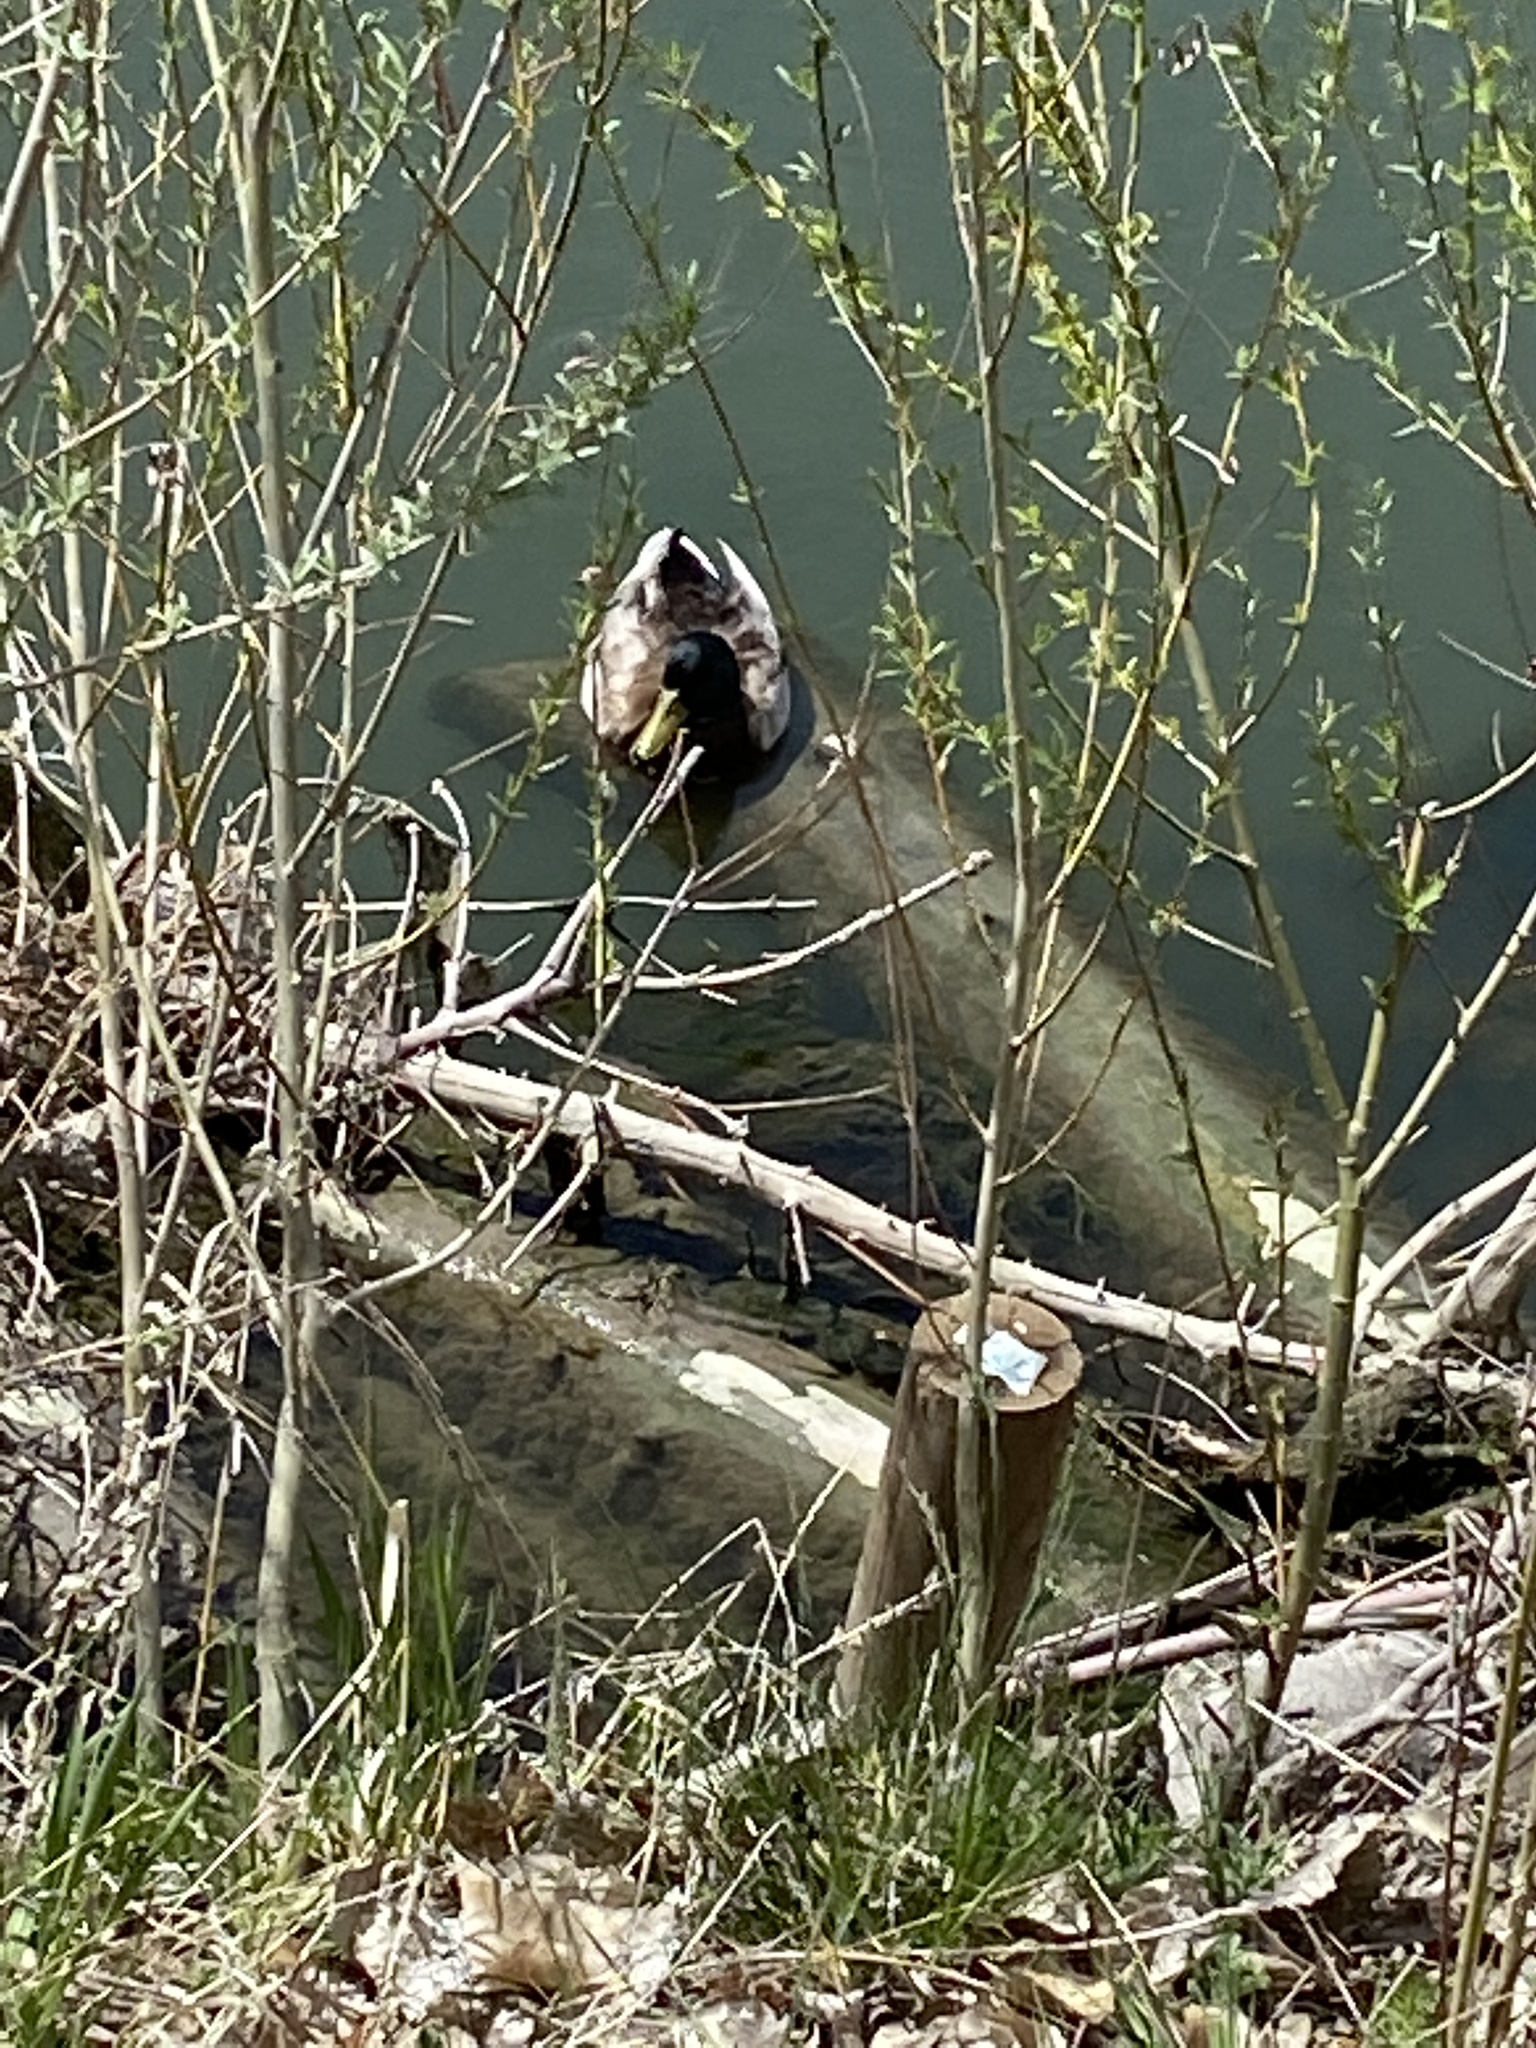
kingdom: Animalia
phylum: Chordata
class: Aves
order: Anseriformes
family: Anatidae
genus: Anas
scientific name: Anas platyrhynchos
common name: Mallard
